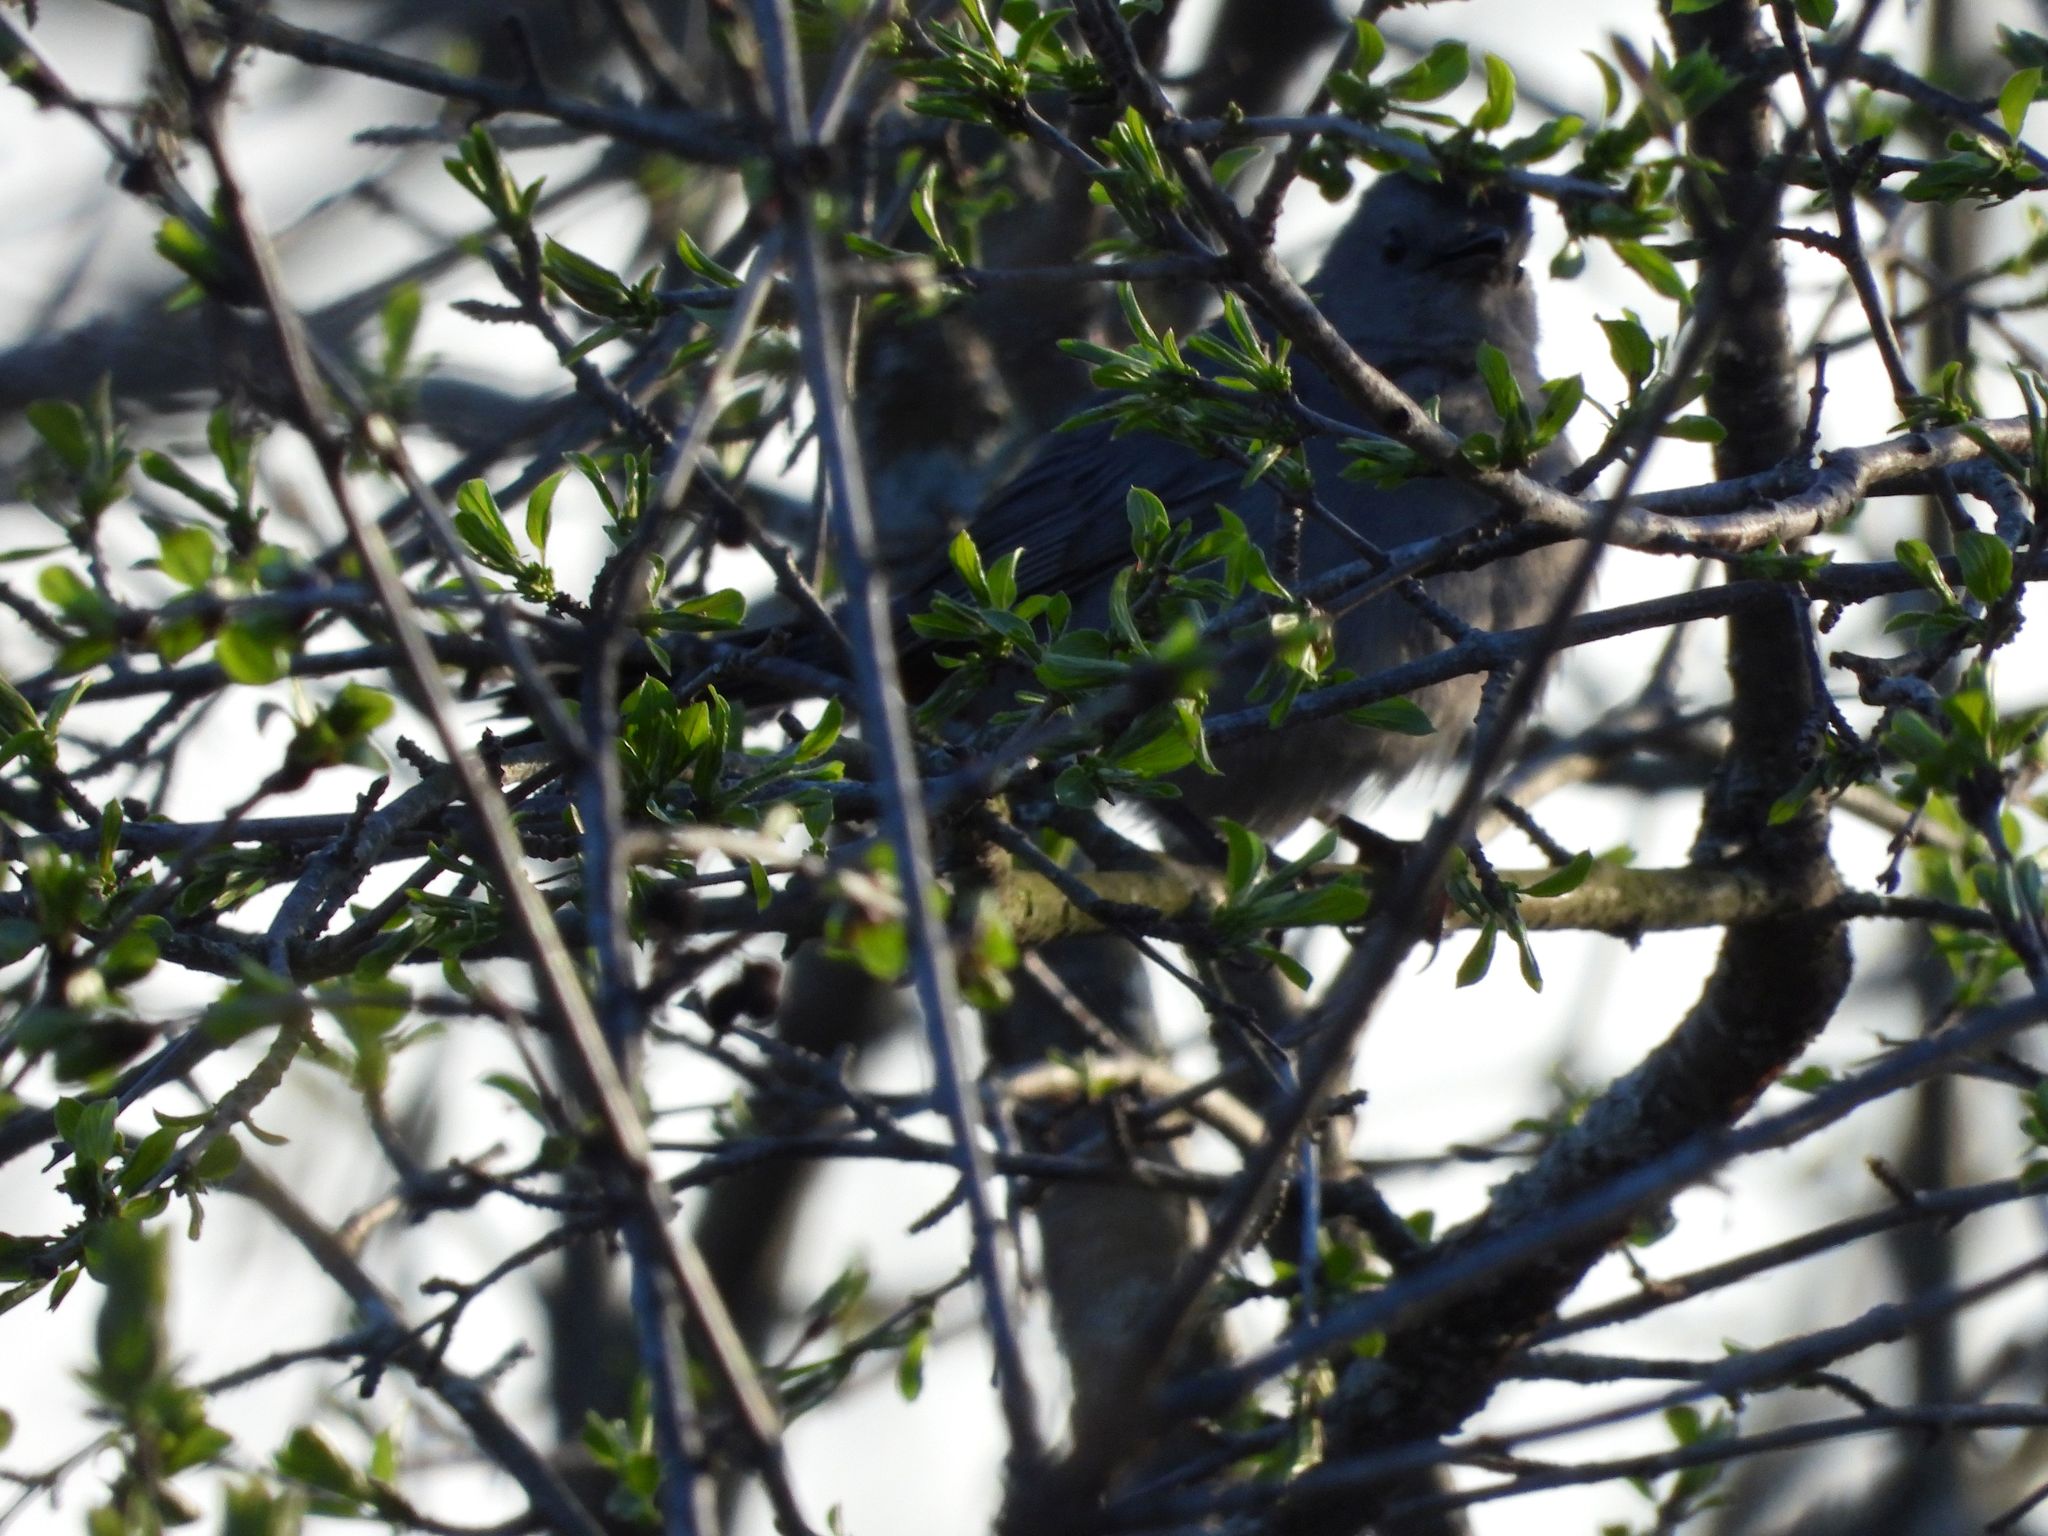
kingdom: Animalia
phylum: Chordata
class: Aves
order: Passeriformes
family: Mimidae
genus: Dumetella
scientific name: Dumetella carolinensis
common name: Gray catbird
